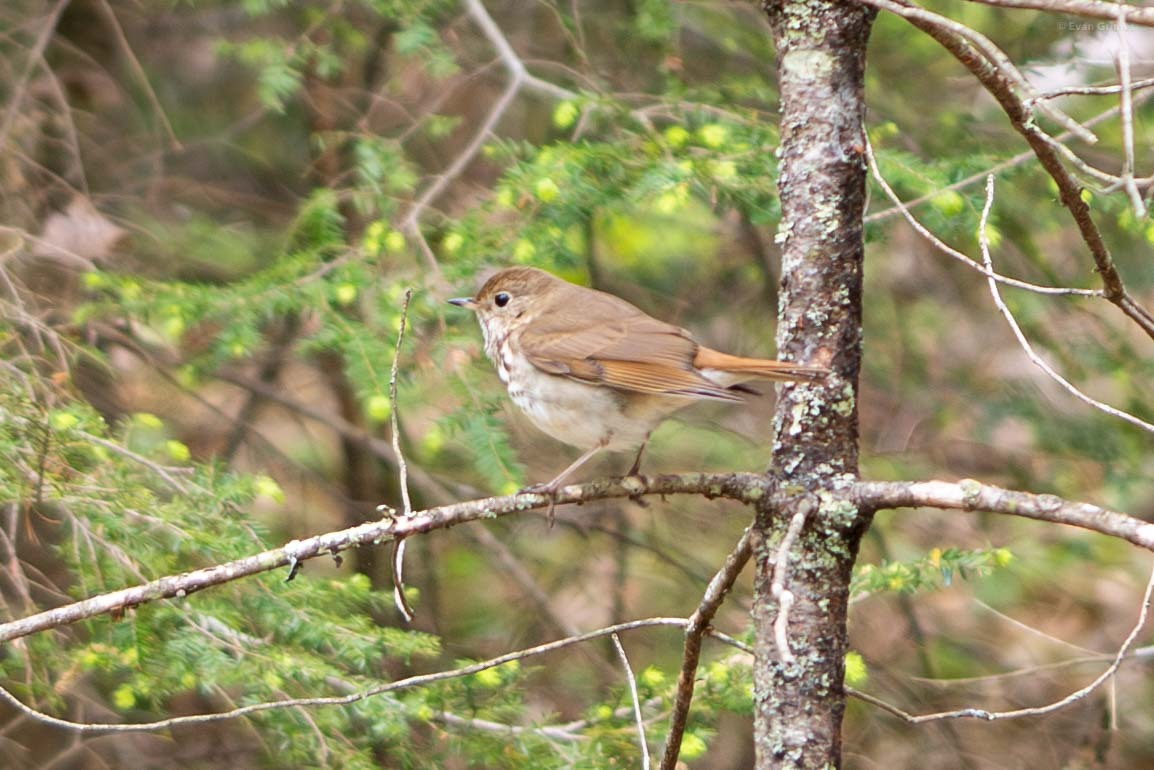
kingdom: Animalia
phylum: Chordata
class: Aves
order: Passeriformes
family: Turdidae
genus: Catharus
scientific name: Catharus guttatus
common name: Hermit thrush
